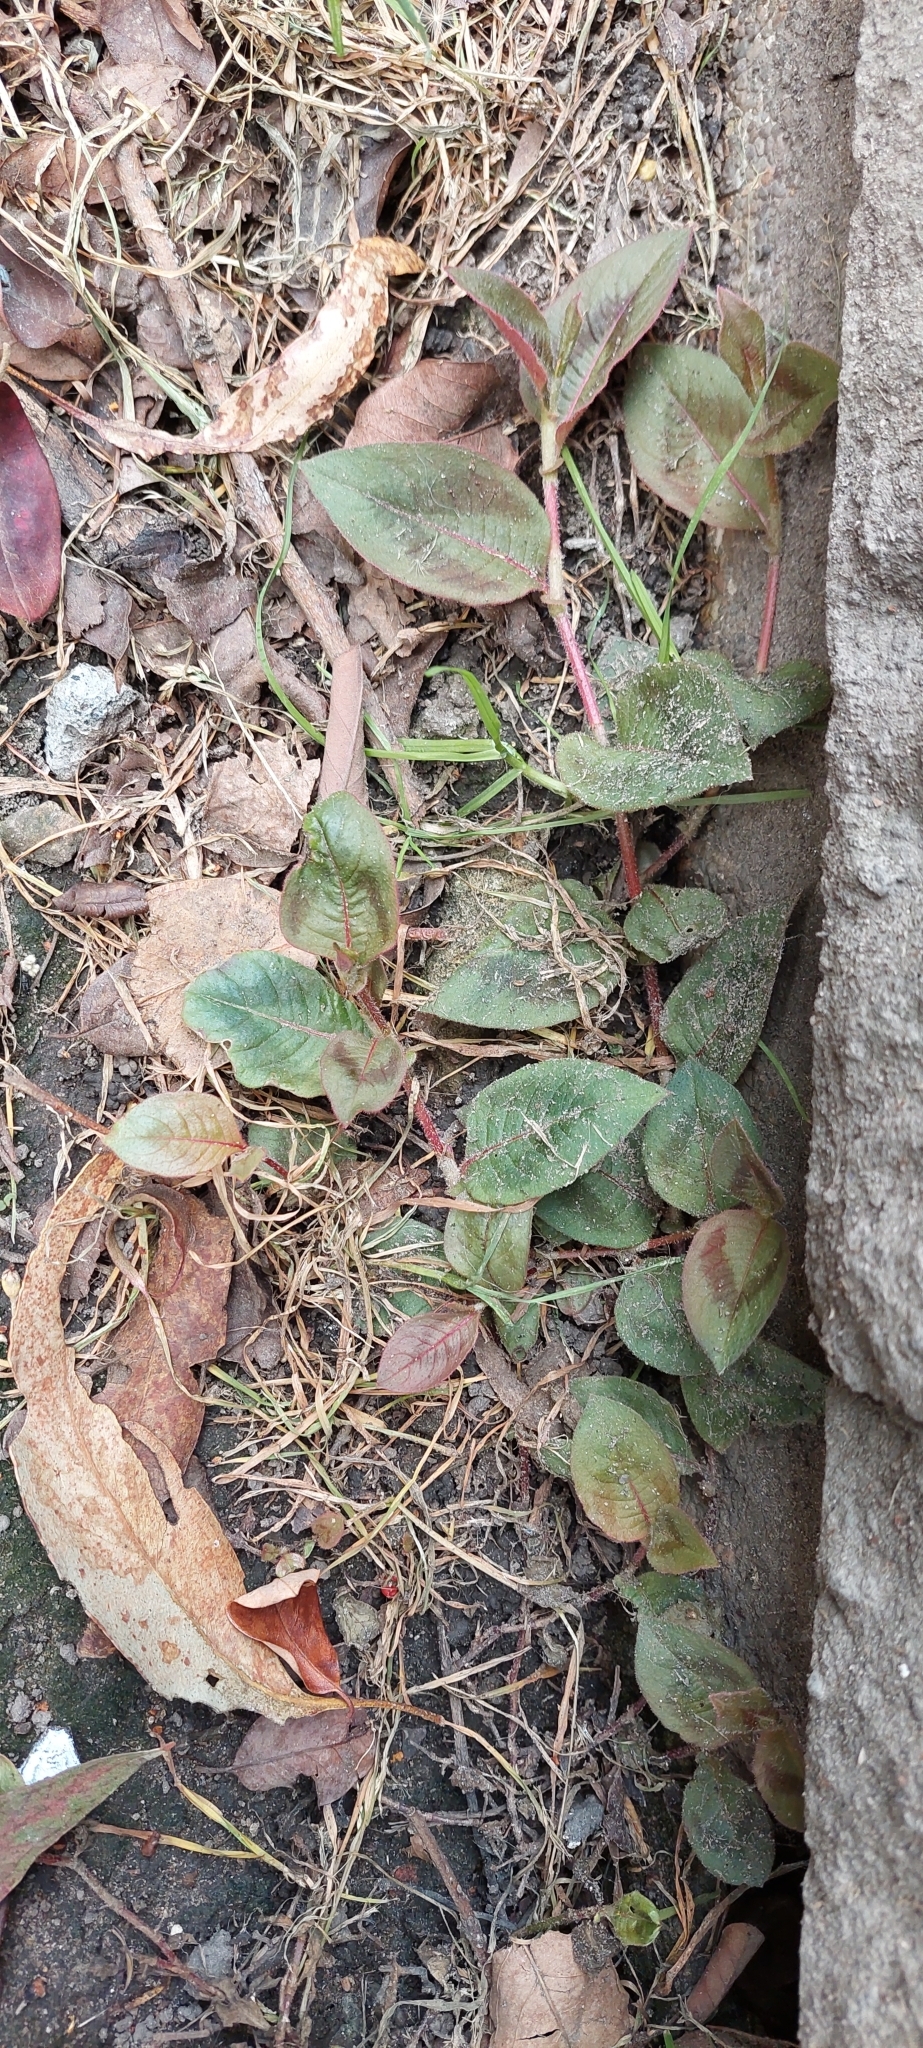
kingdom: Plantae
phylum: Tracheophyta
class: Magnoliopsida
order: Caryophyllales
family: Polygonaceae
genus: Persicaria
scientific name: Persicaria capitata
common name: Pinkhead smartweed
